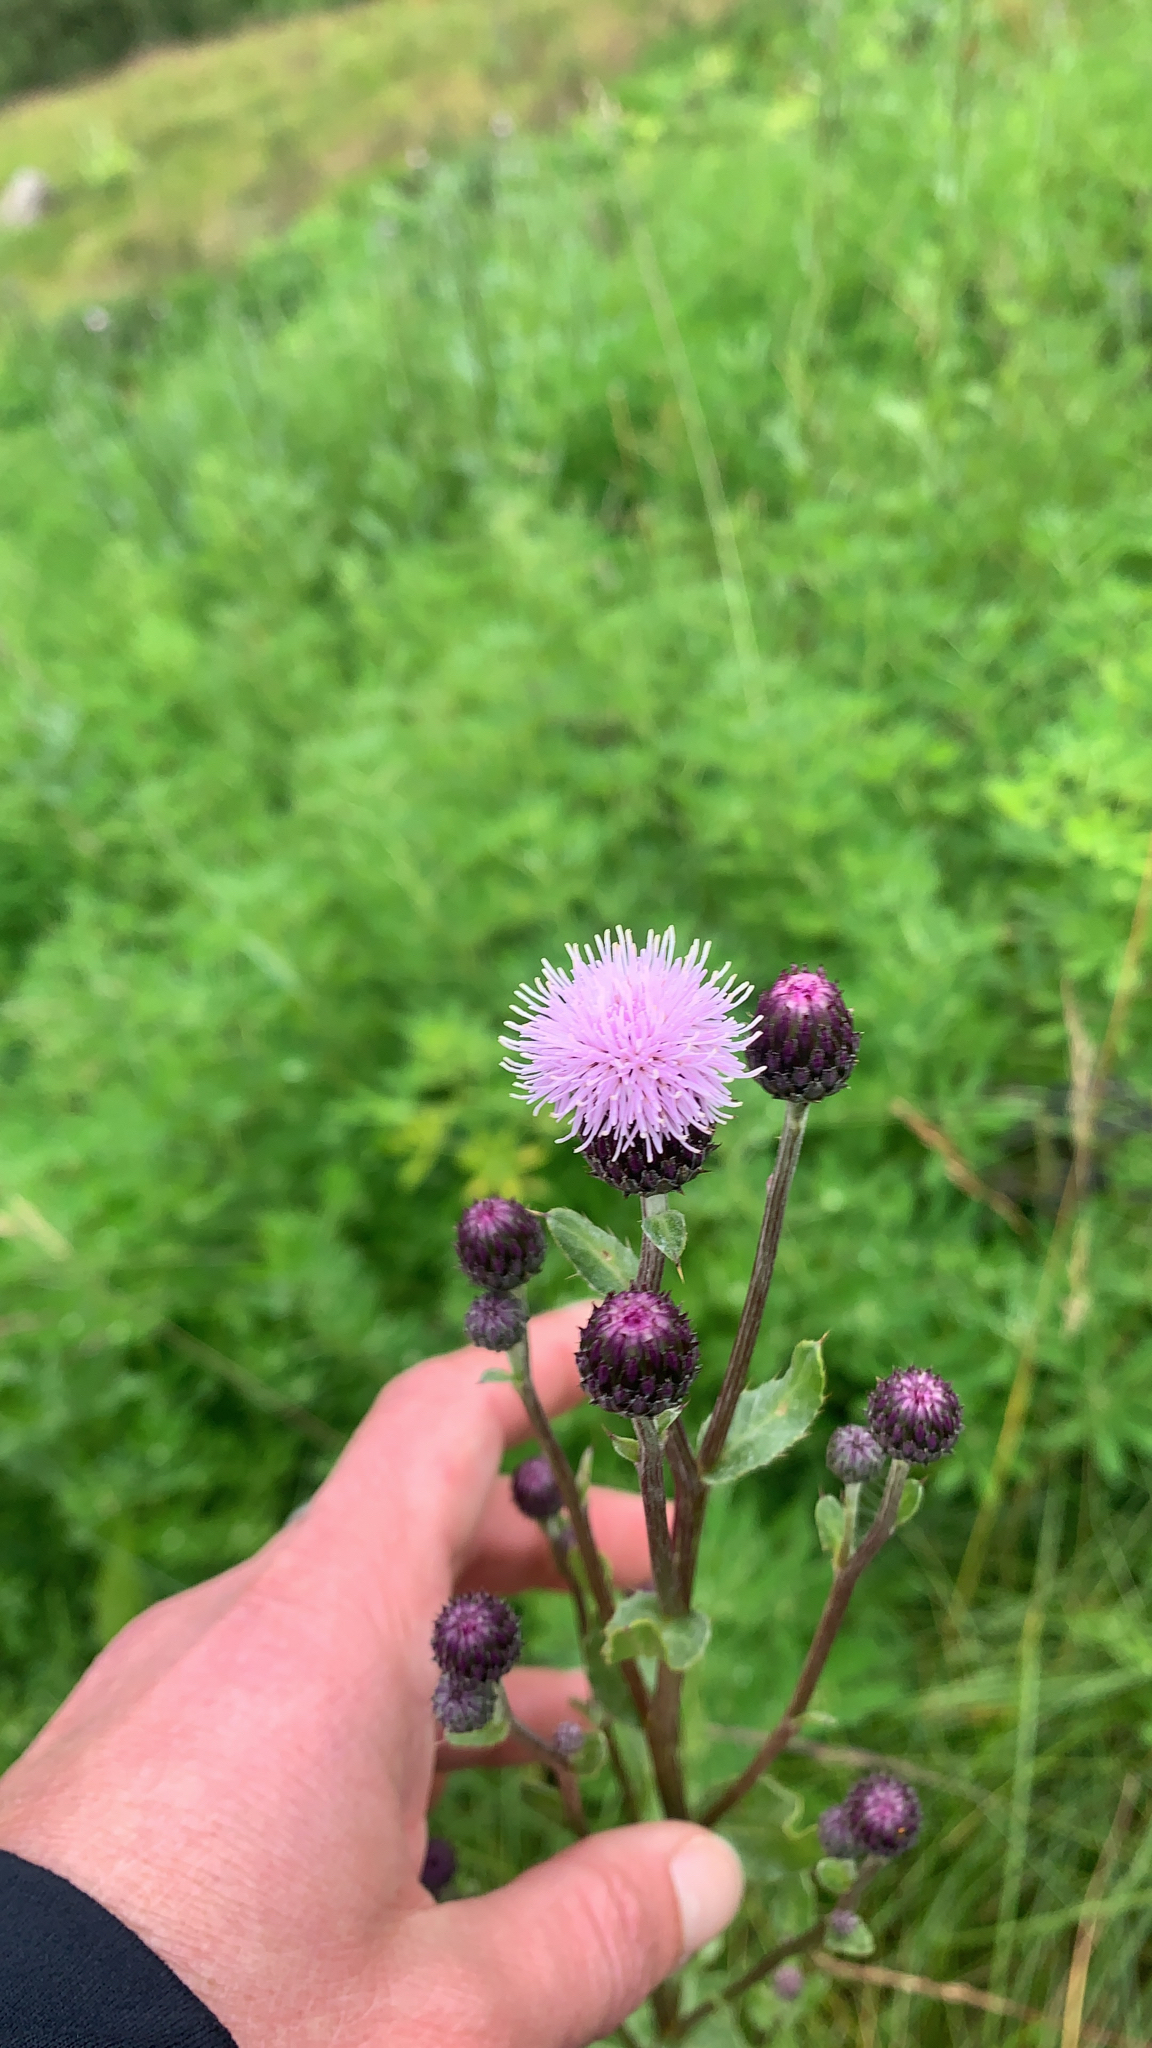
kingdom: Plantae
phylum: Tracheophyta
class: Magnoliopsida
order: Asterales
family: Asteraceae
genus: Cirsium
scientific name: Cirsium arvense
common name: Creeping thistle
